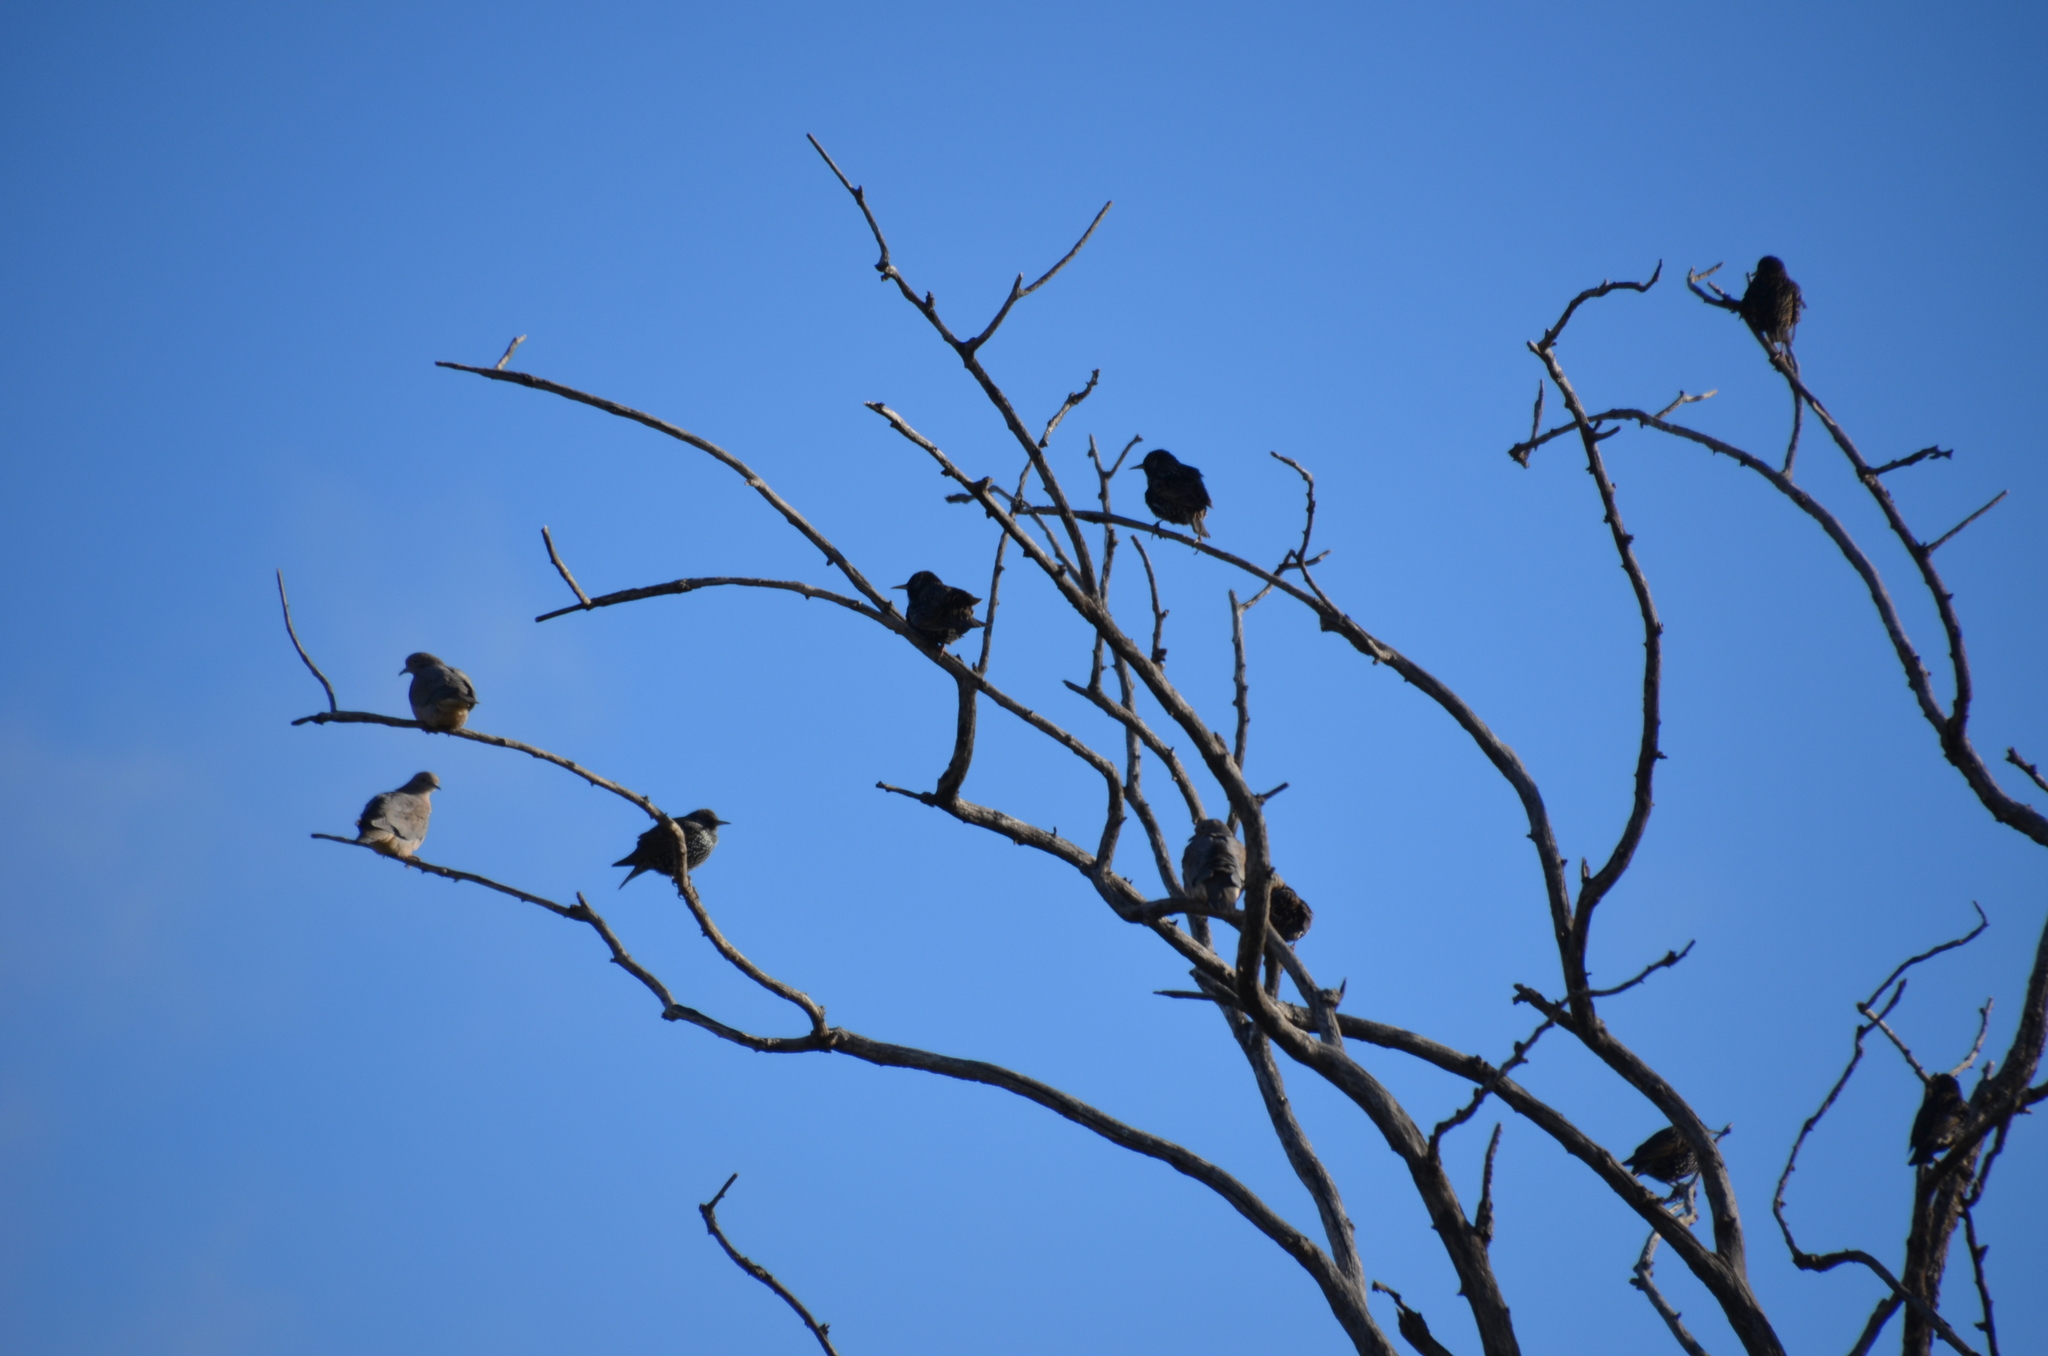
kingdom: Animalia
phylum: Chordata
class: Aves
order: Columbiformes
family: Columbidae
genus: Zenaida
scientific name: Zenaida auriculata
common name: Eared dove
